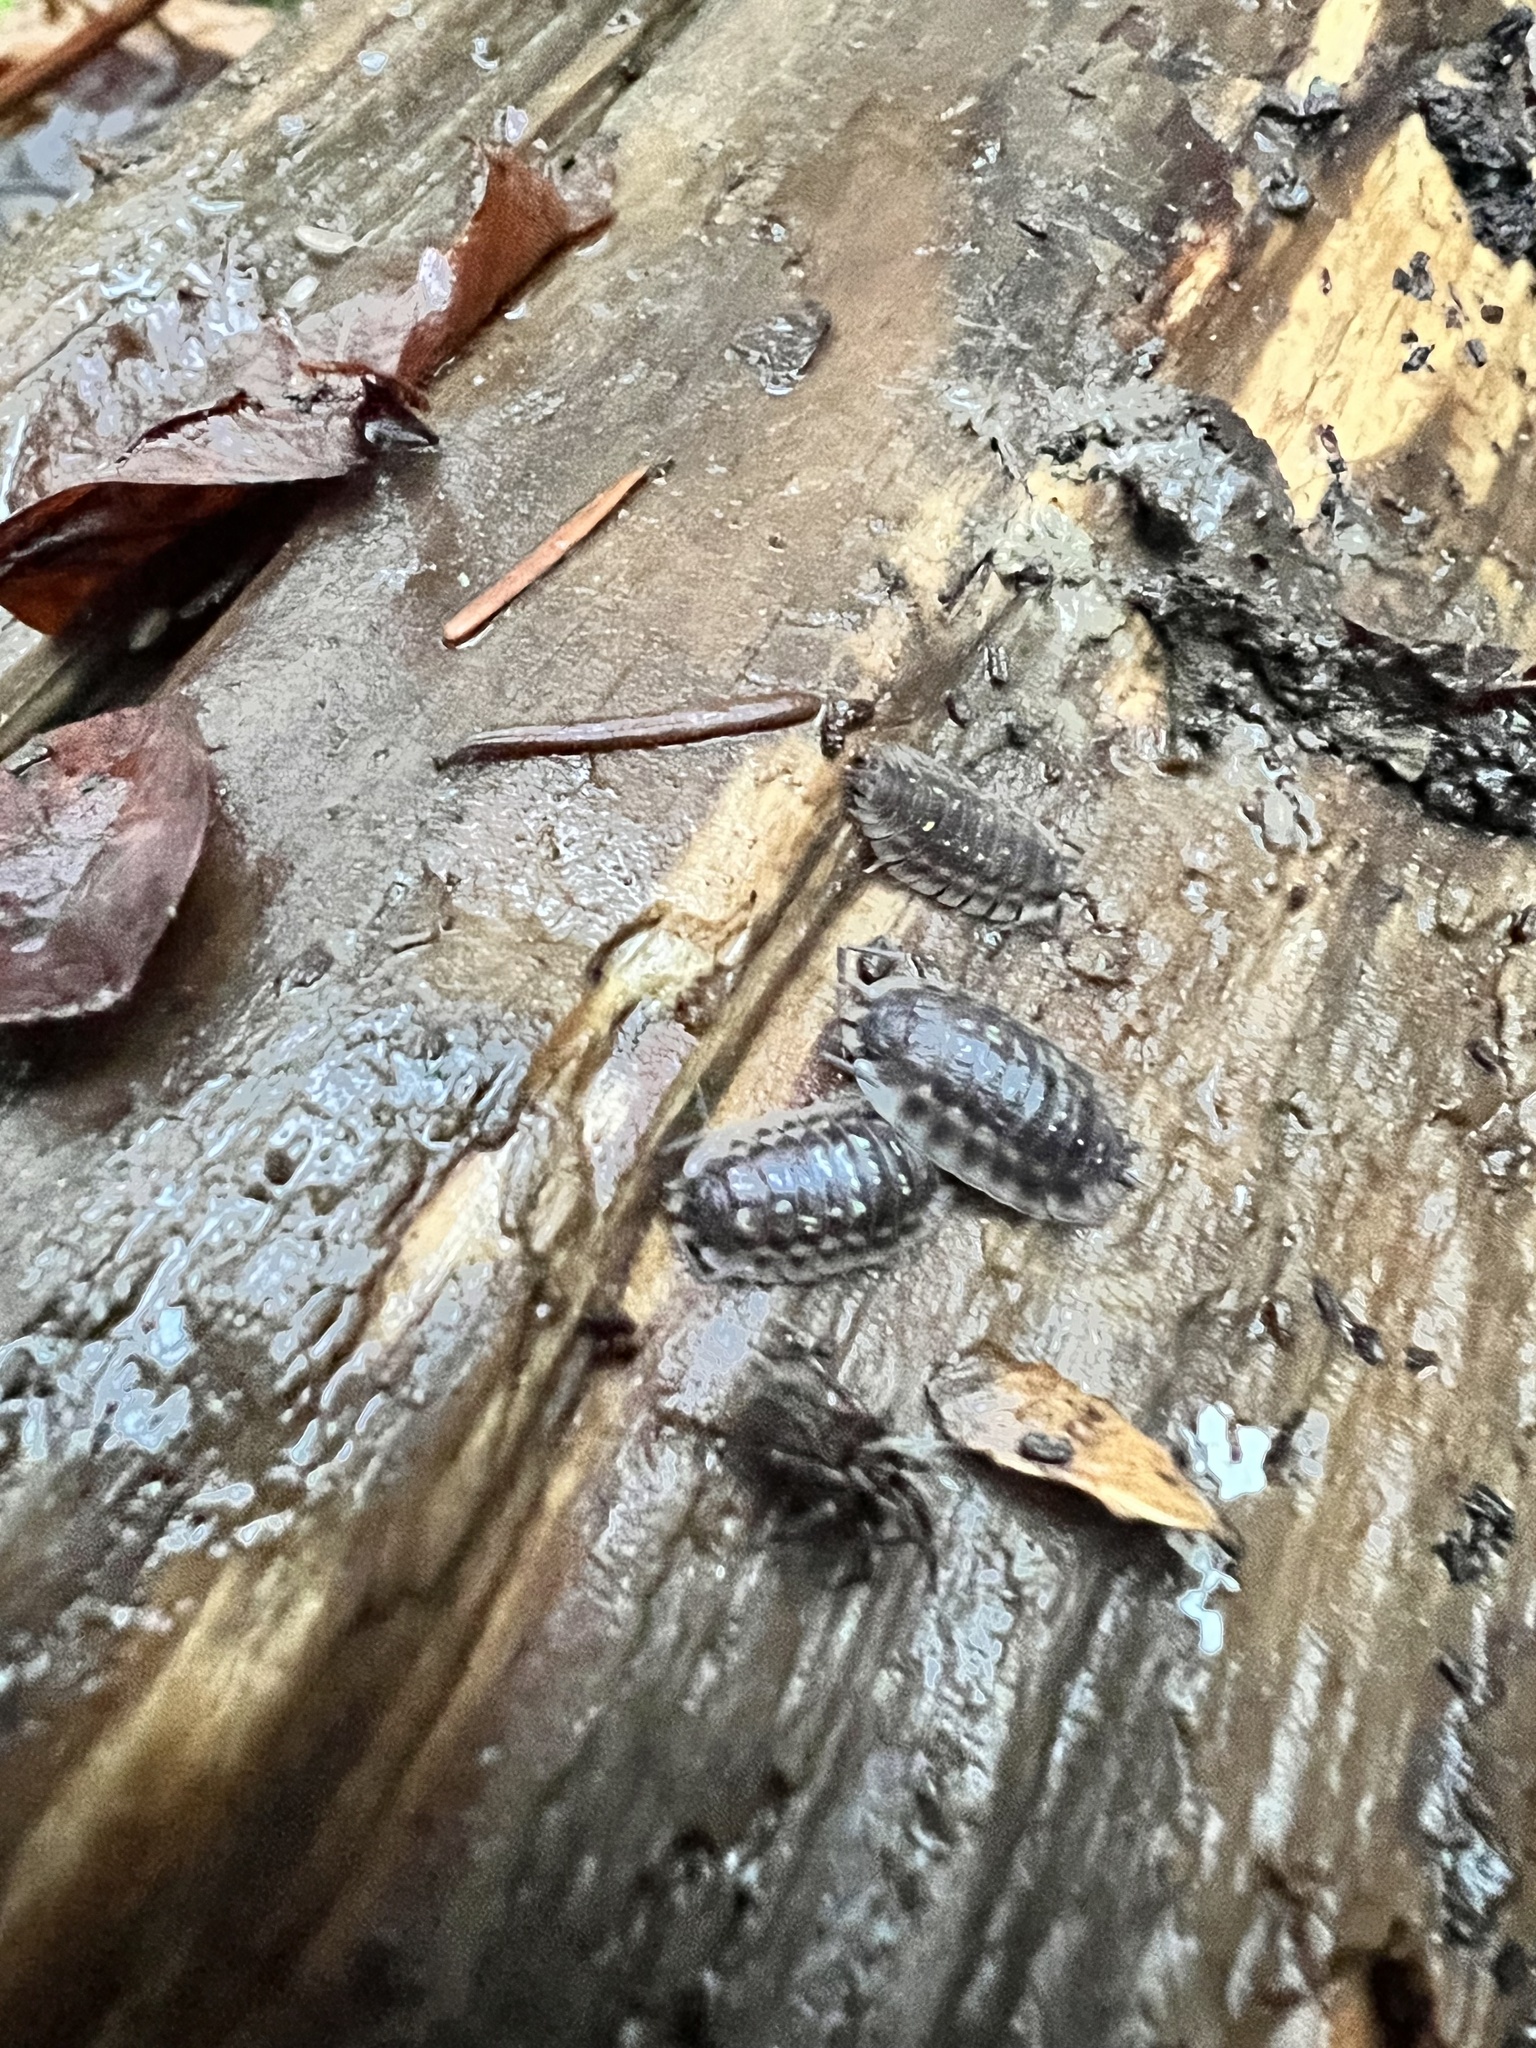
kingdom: Animalia
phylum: Arthropoda
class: Malacostraca
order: Isopoda
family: Oniscidae
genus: Oniscus
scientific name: Oniscus asellus
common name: Common shiny woodlouse
